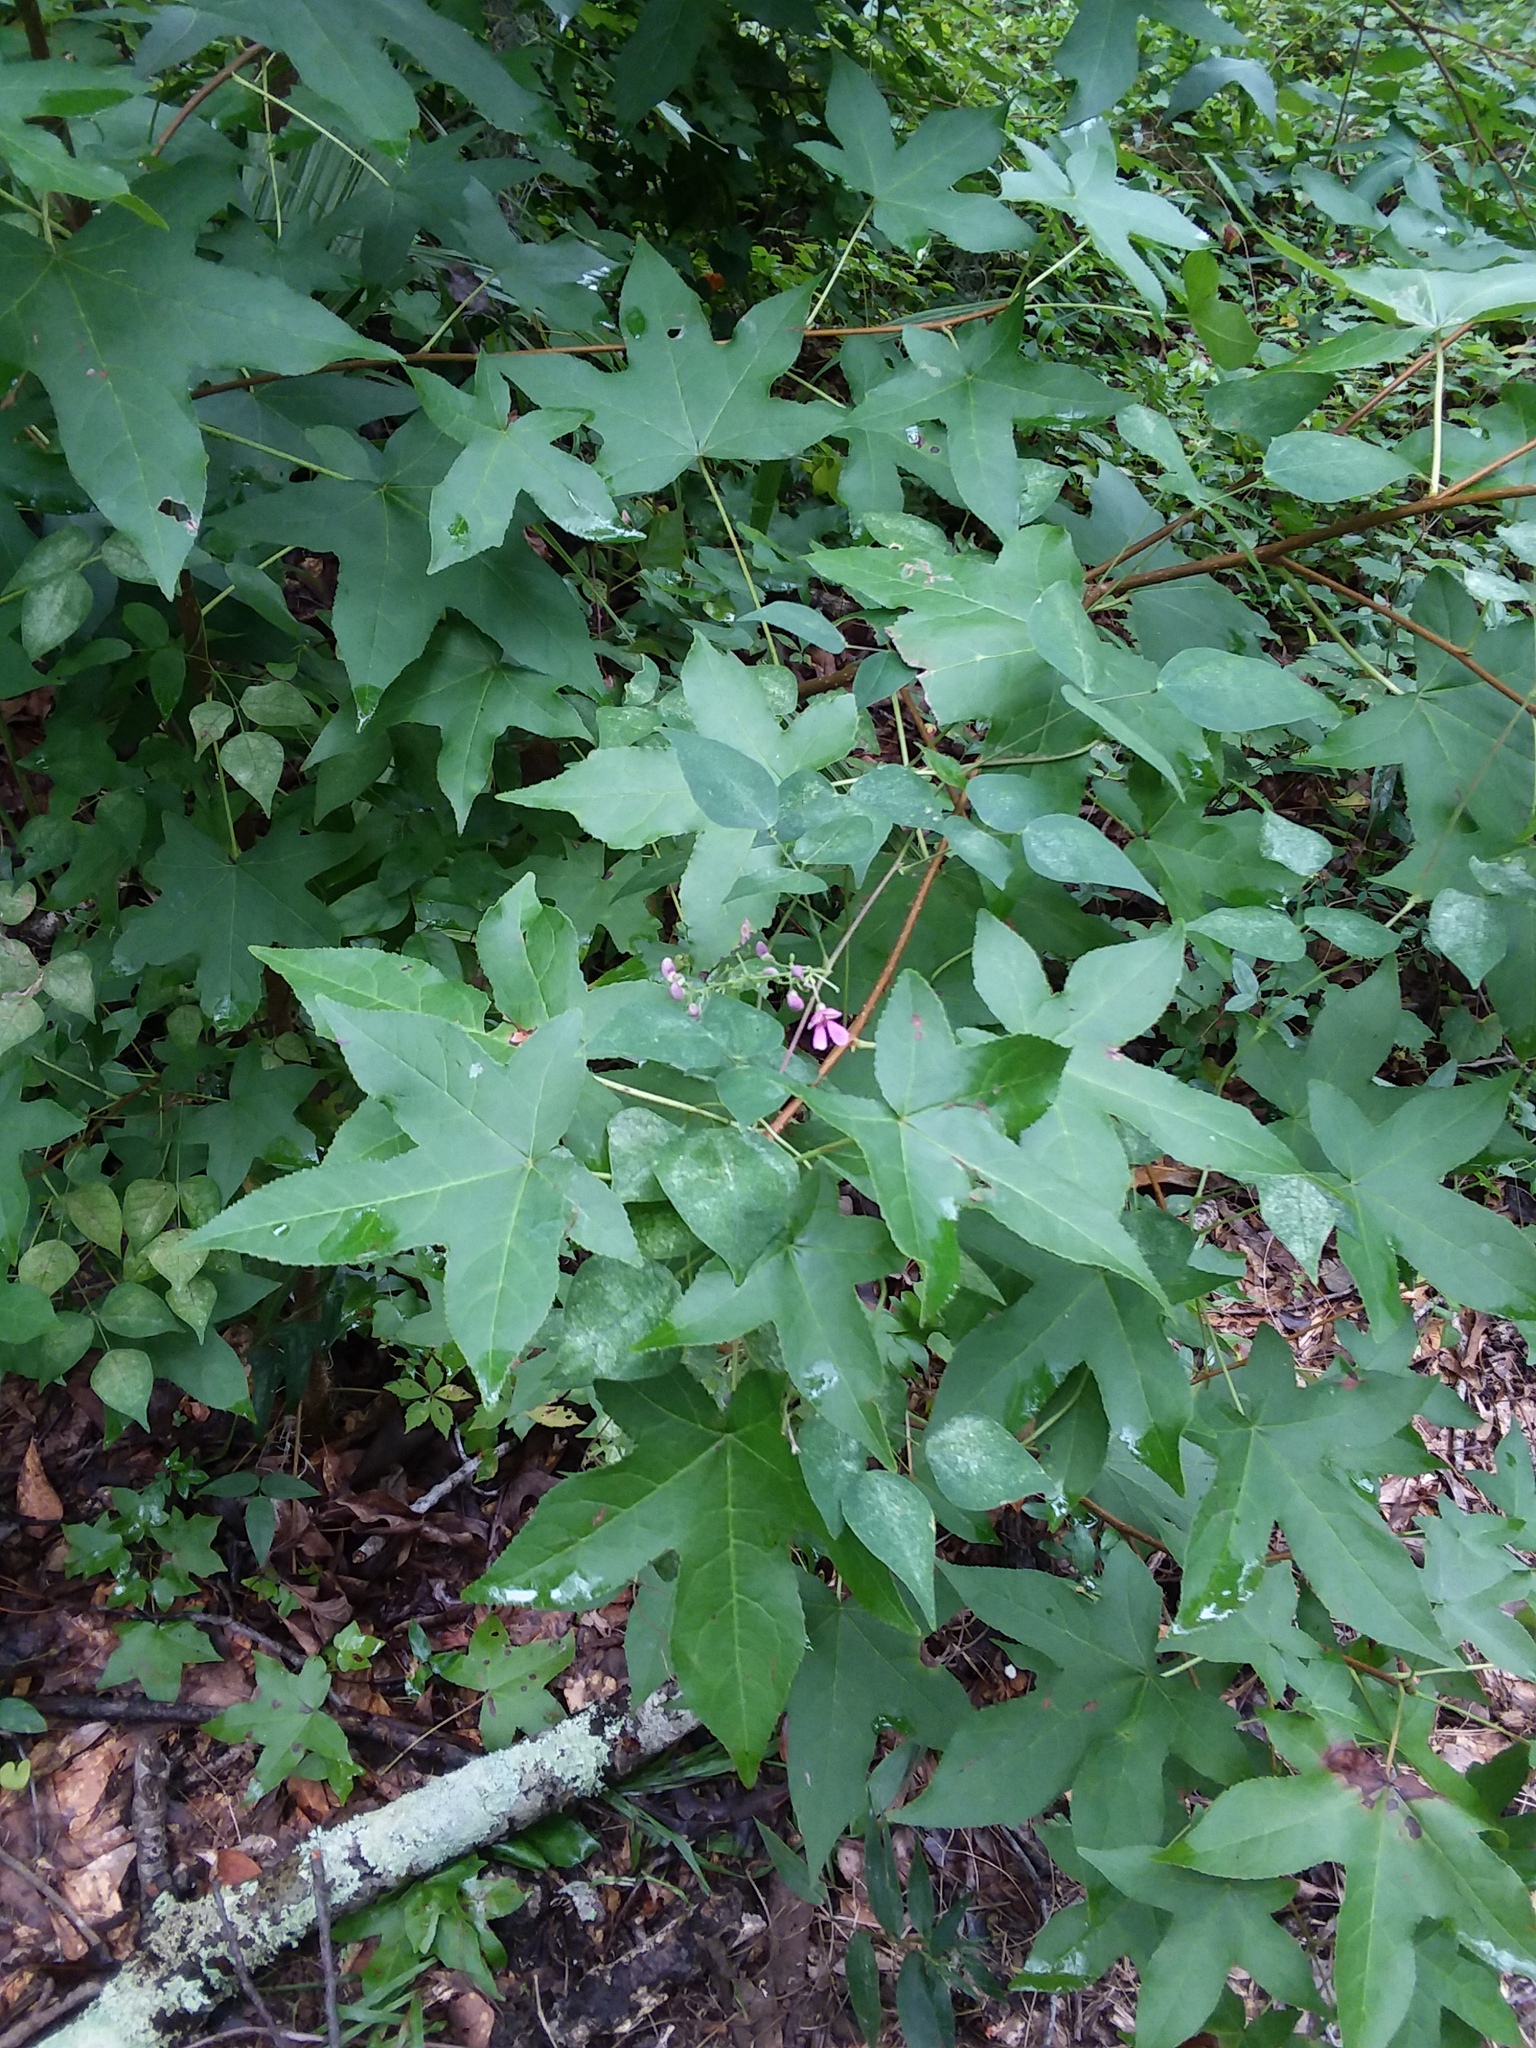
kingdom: Plantae
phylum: Tracheophyta
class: Magnoliopsida
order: Saxifragales
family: Altingiaceae
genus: Liquidambar
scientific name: Liquidambar styraciflua
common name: Sweet gum
